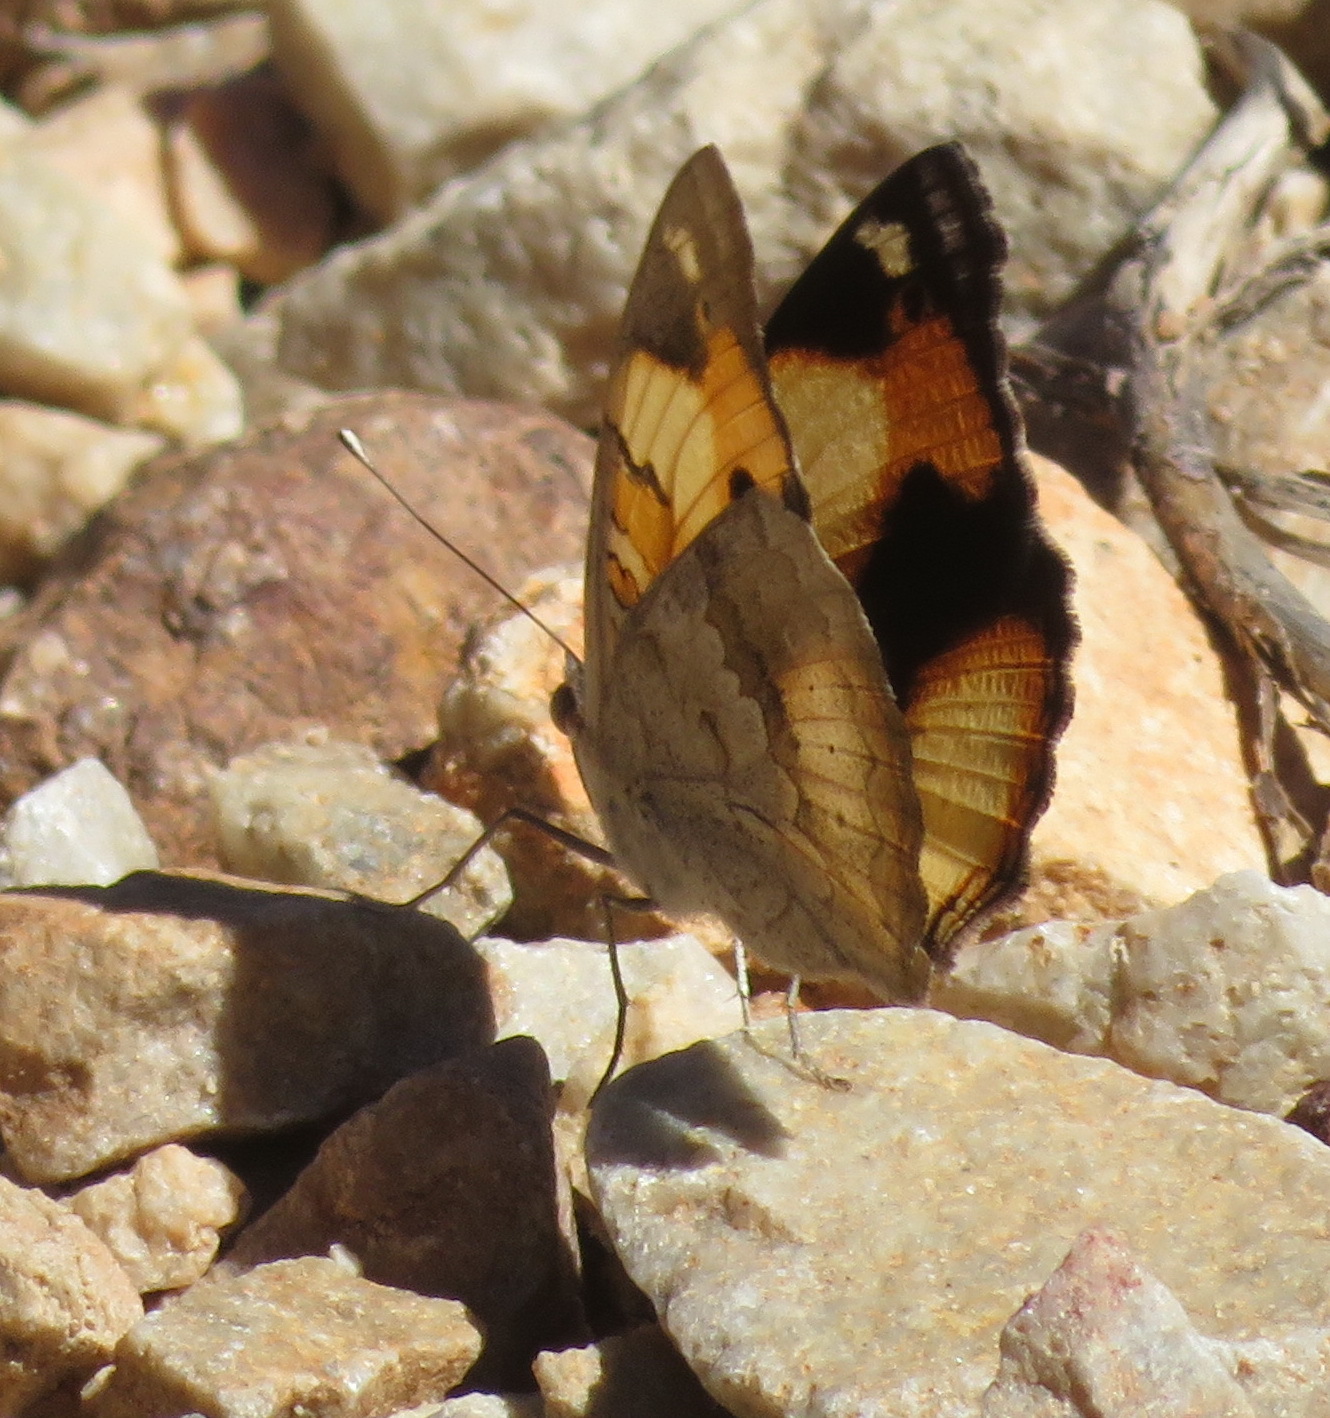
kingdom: Animalia
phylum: Arthropoda
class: Insecta
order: Lepidoptera
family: Nymphalidae
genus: Junonia
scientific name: Junonia hierta
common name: Yellow pansy
